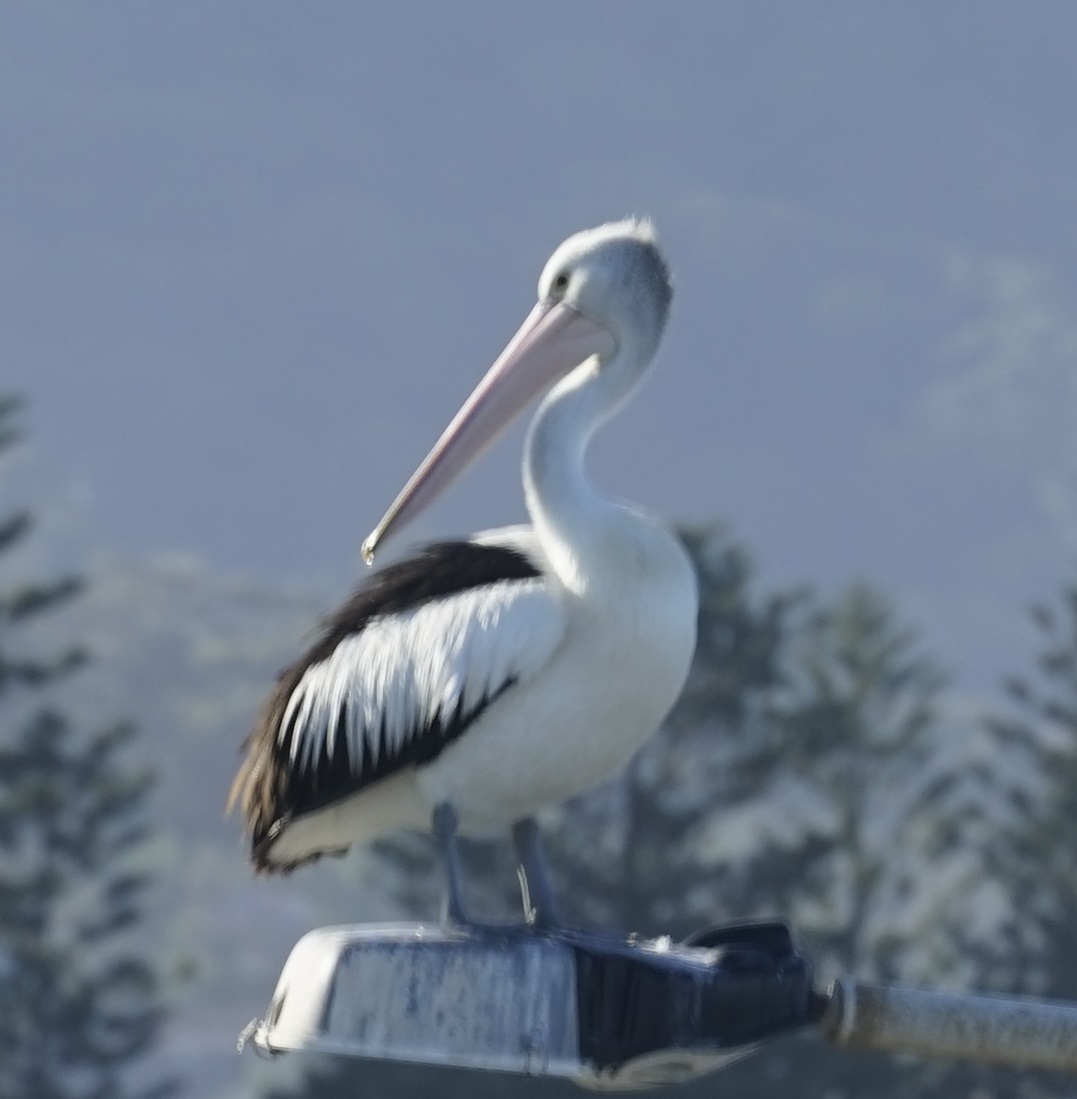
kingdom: Animalia
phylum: Chordata
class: Aves
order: Pelecaniformes
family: Pelecanidae
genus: Pelecanus
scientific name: Pelecanus conspicillatus
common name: Australian pelican
